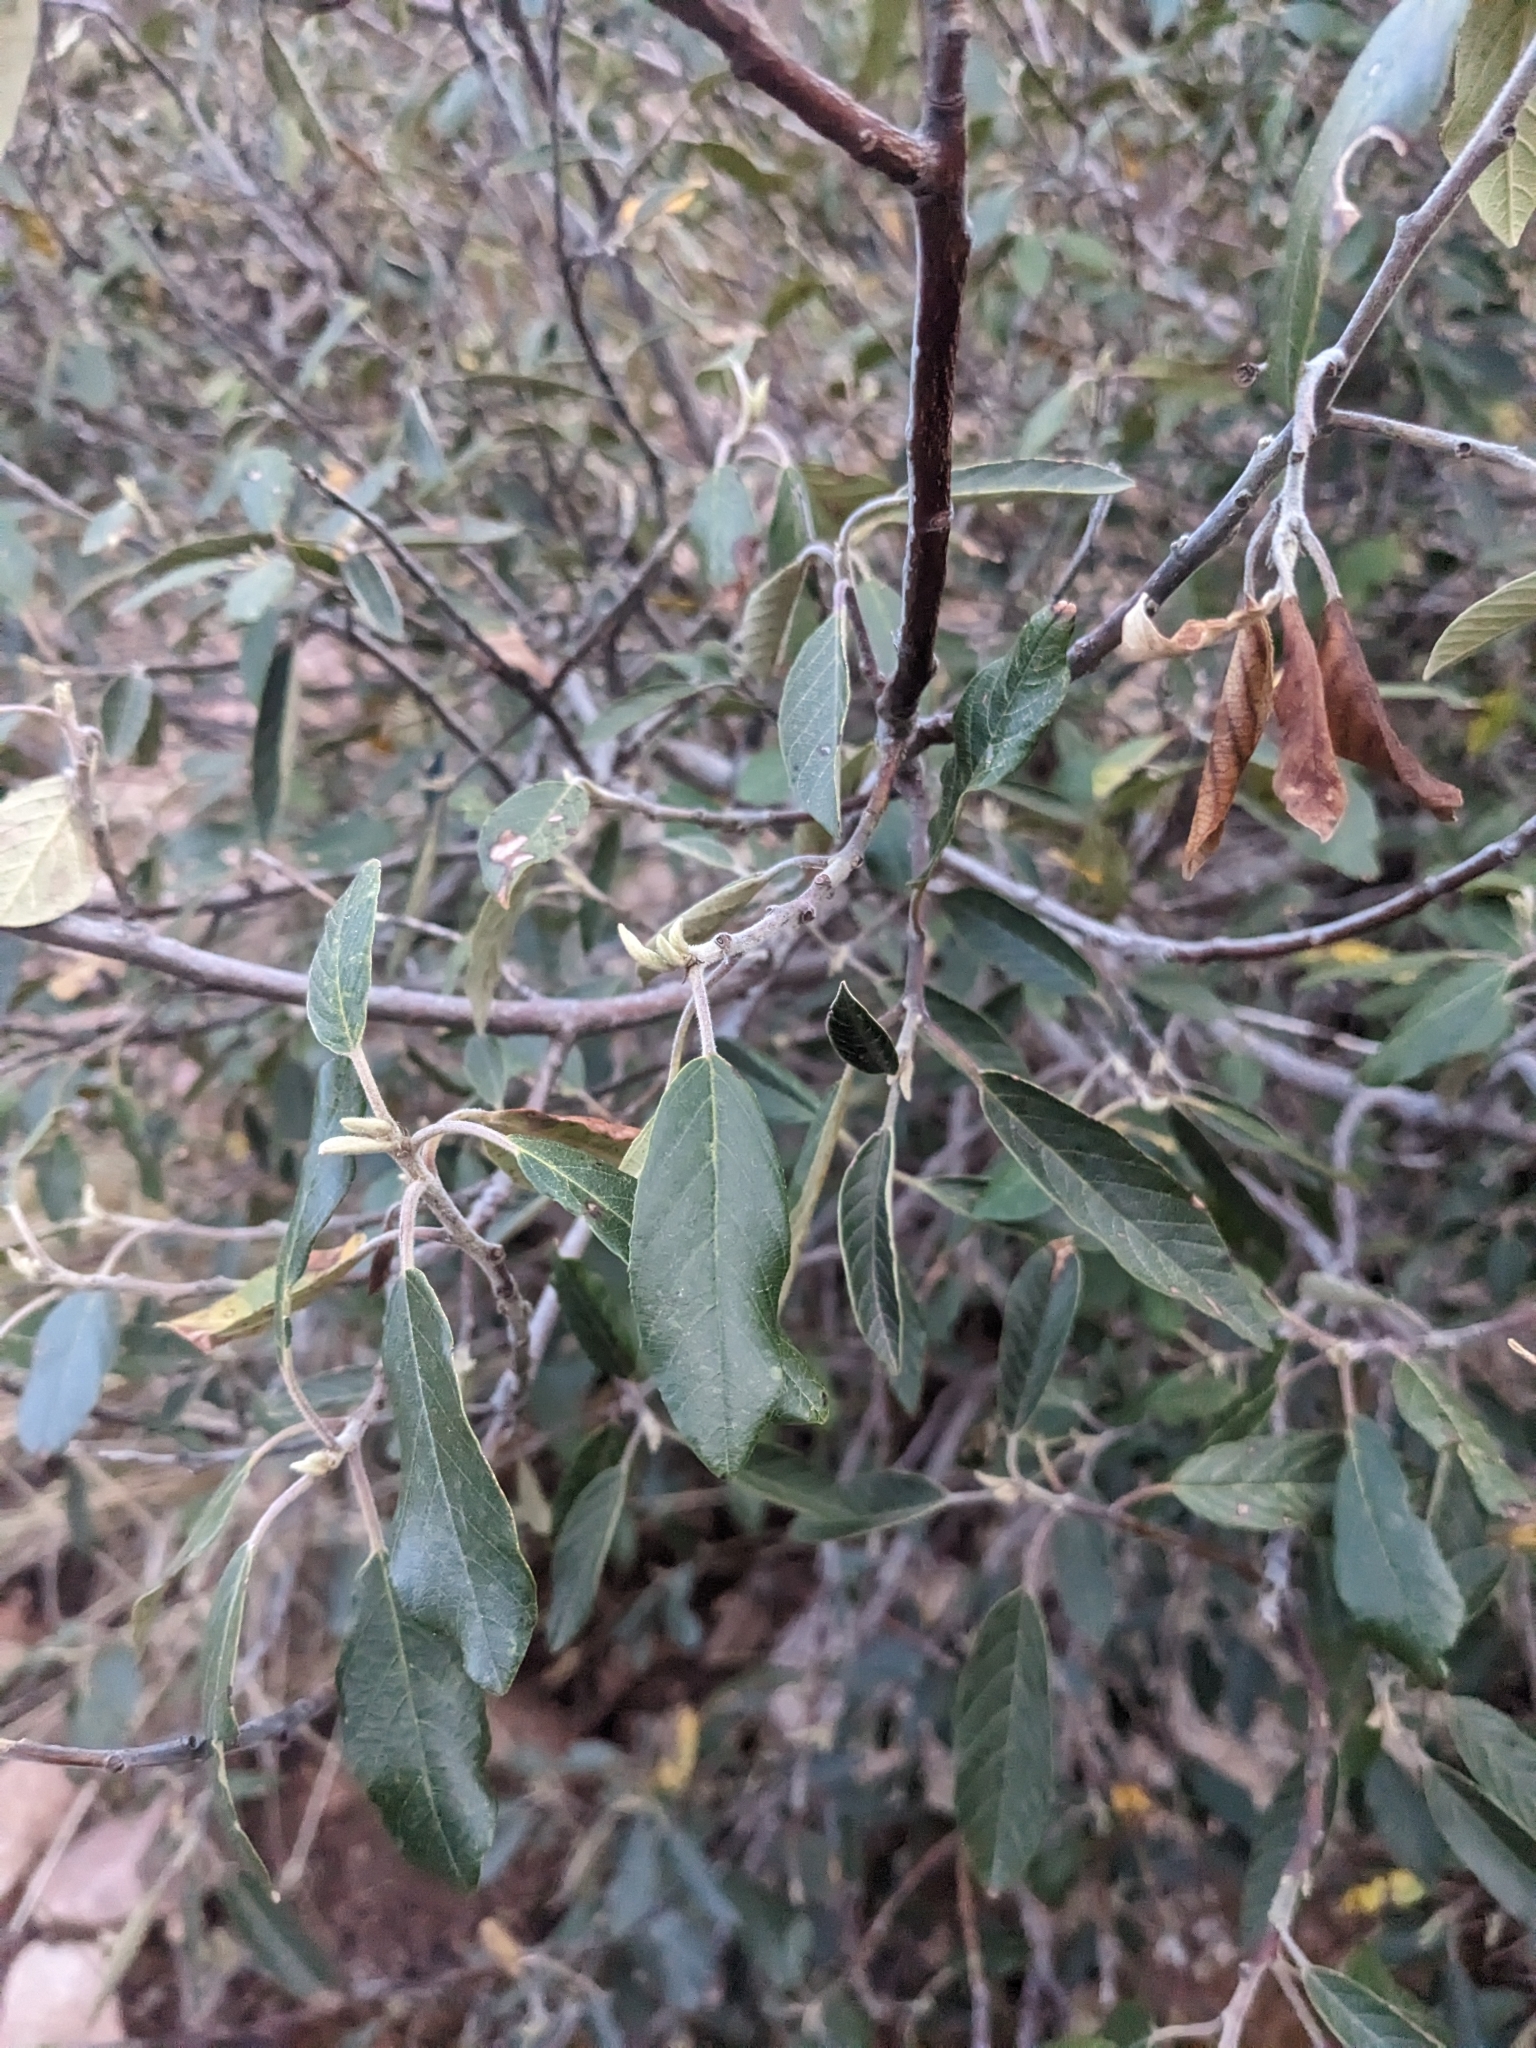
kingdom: Plantae
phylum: Tracheophyta
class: Magnoliopsida
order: Rosales
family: Rhamnaceae
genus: Frangula
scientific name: Frangula californica
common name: California buckthorn
